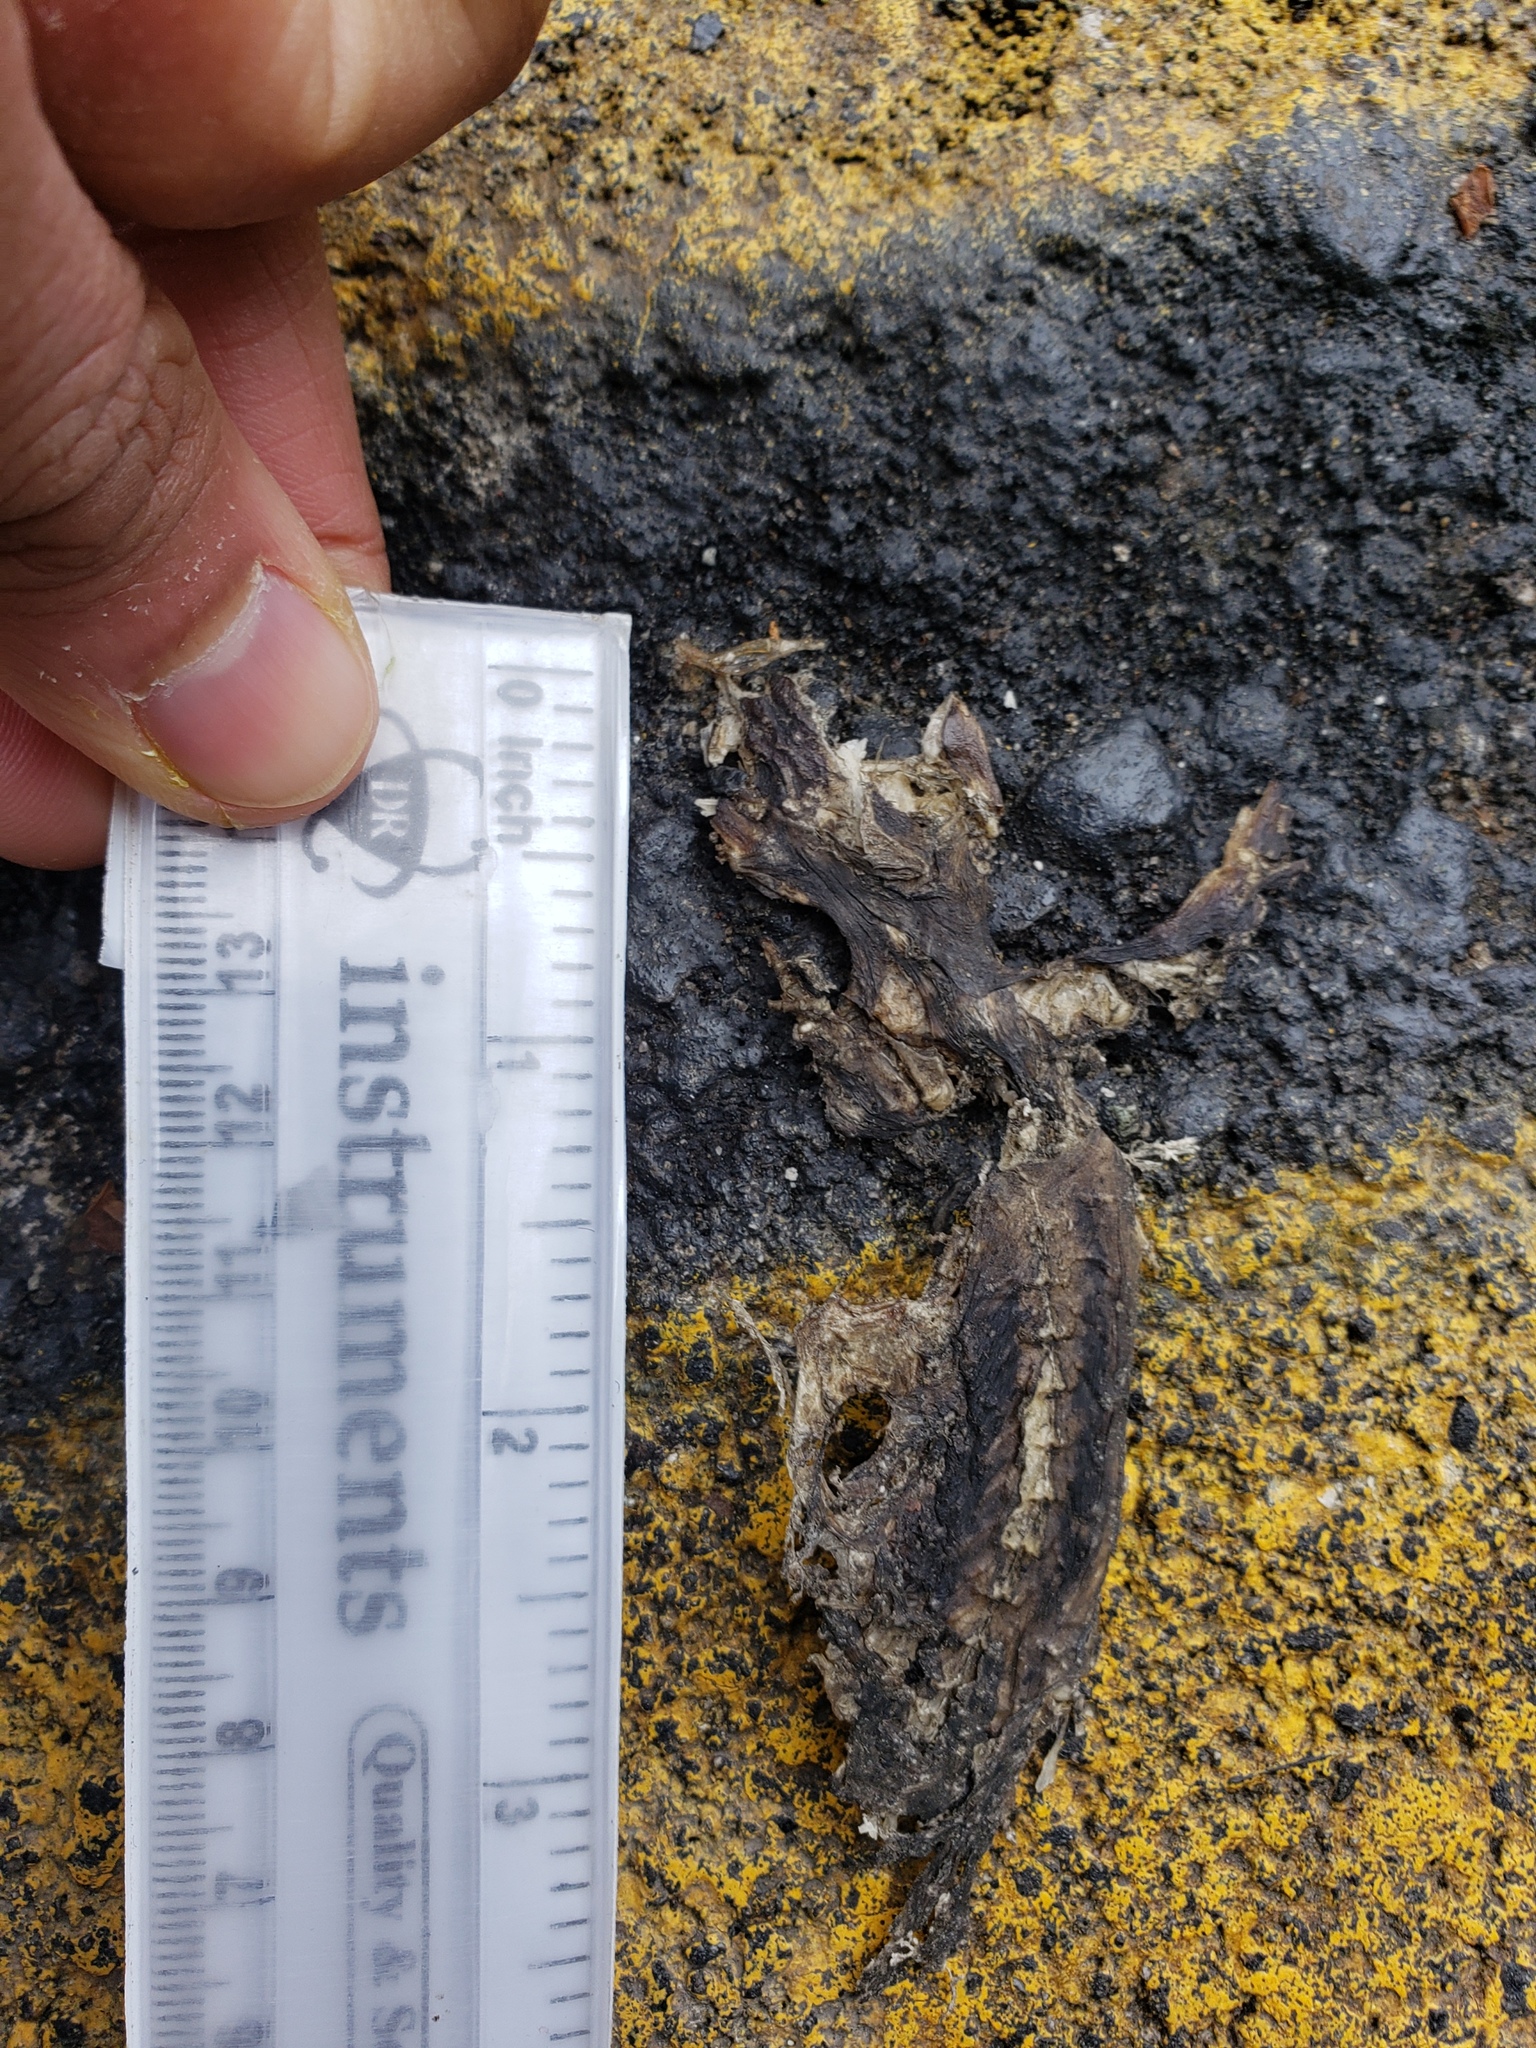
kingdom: Animalia
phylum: Chordata
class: Amphibia
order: Caudata
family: Salamandridae
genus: Taricha
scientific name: Taricha
